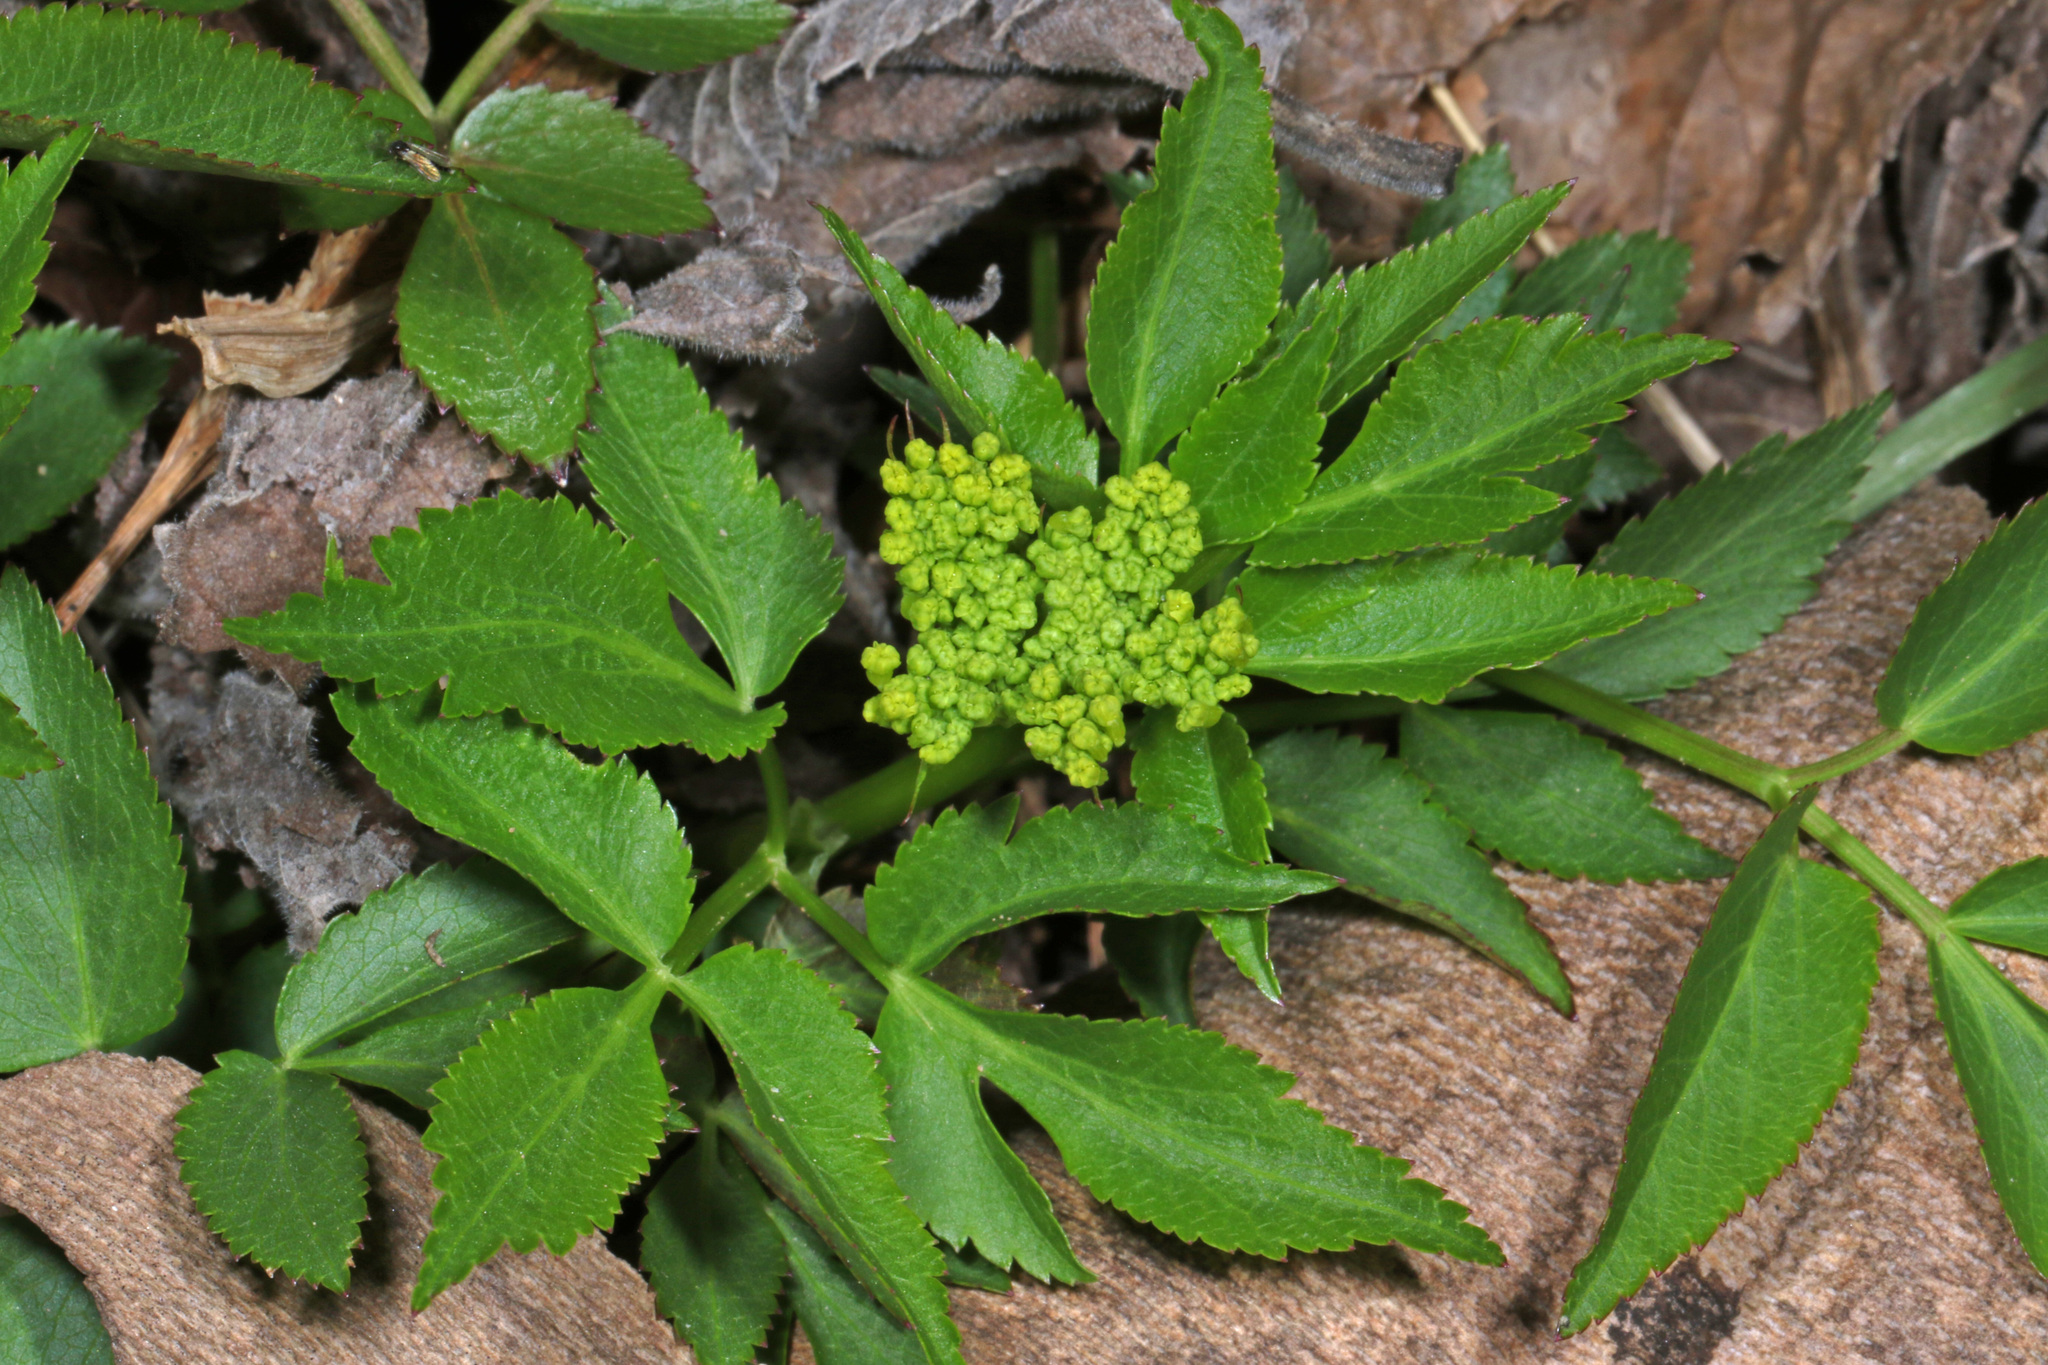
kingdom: Plantae
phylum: Tracheophyta
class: Magnoliopsida
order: Apiales
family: Apiaceae
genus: Zizia
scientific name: Zizia aurea
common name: Golden alexanders
